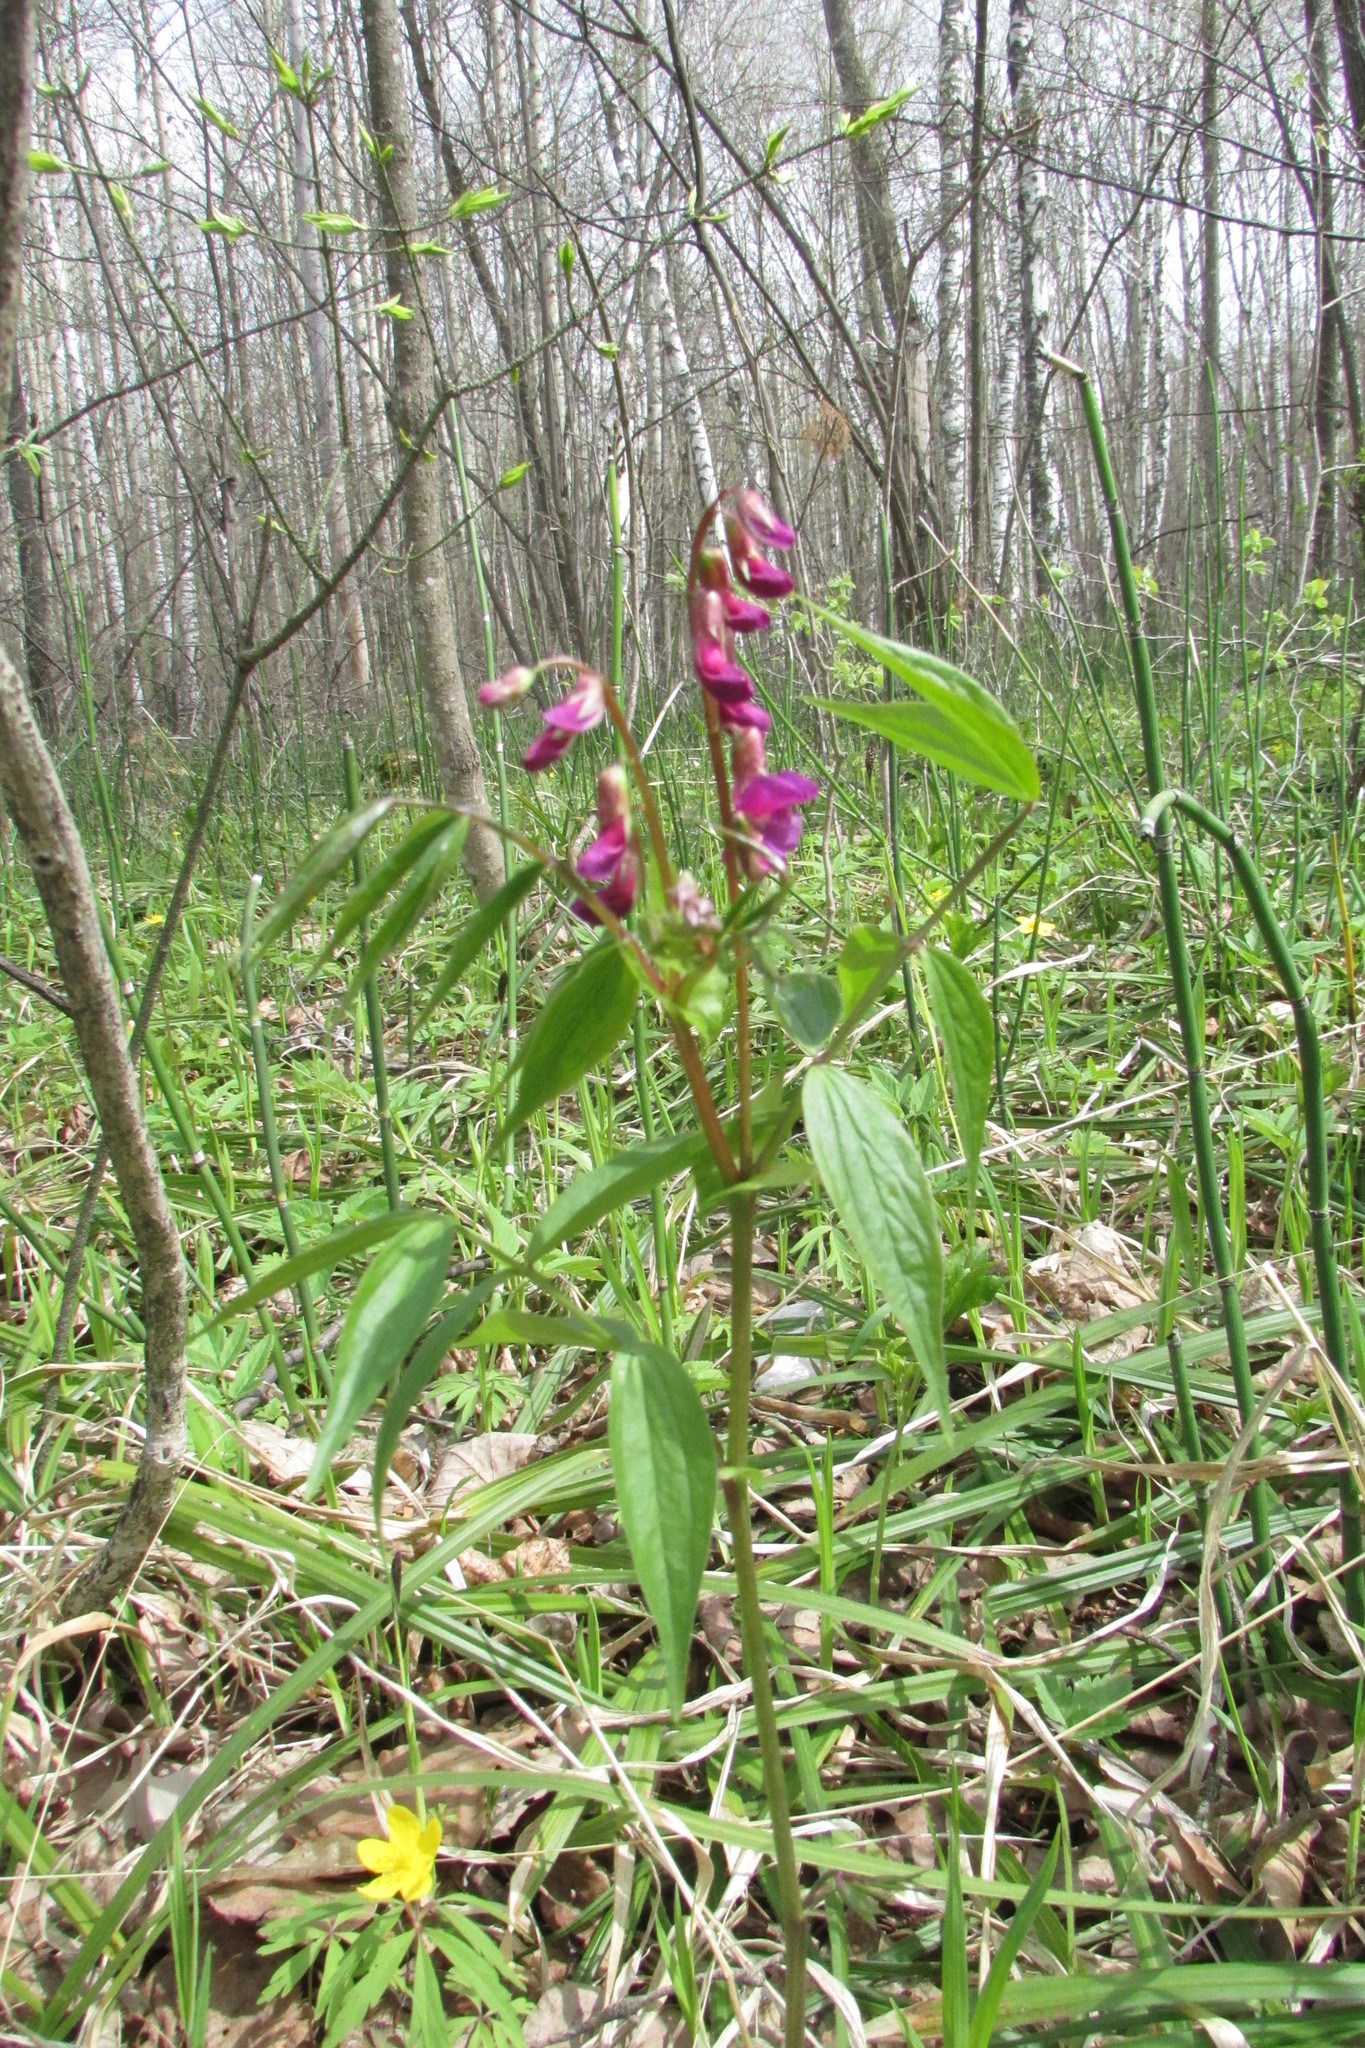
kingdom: Plantae
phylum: Tracheophyta
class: Magnoliopsida
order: Fabales
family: Fabaceae
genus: Lathyrus
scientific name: Lathyrus vernus
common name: Spring pea
